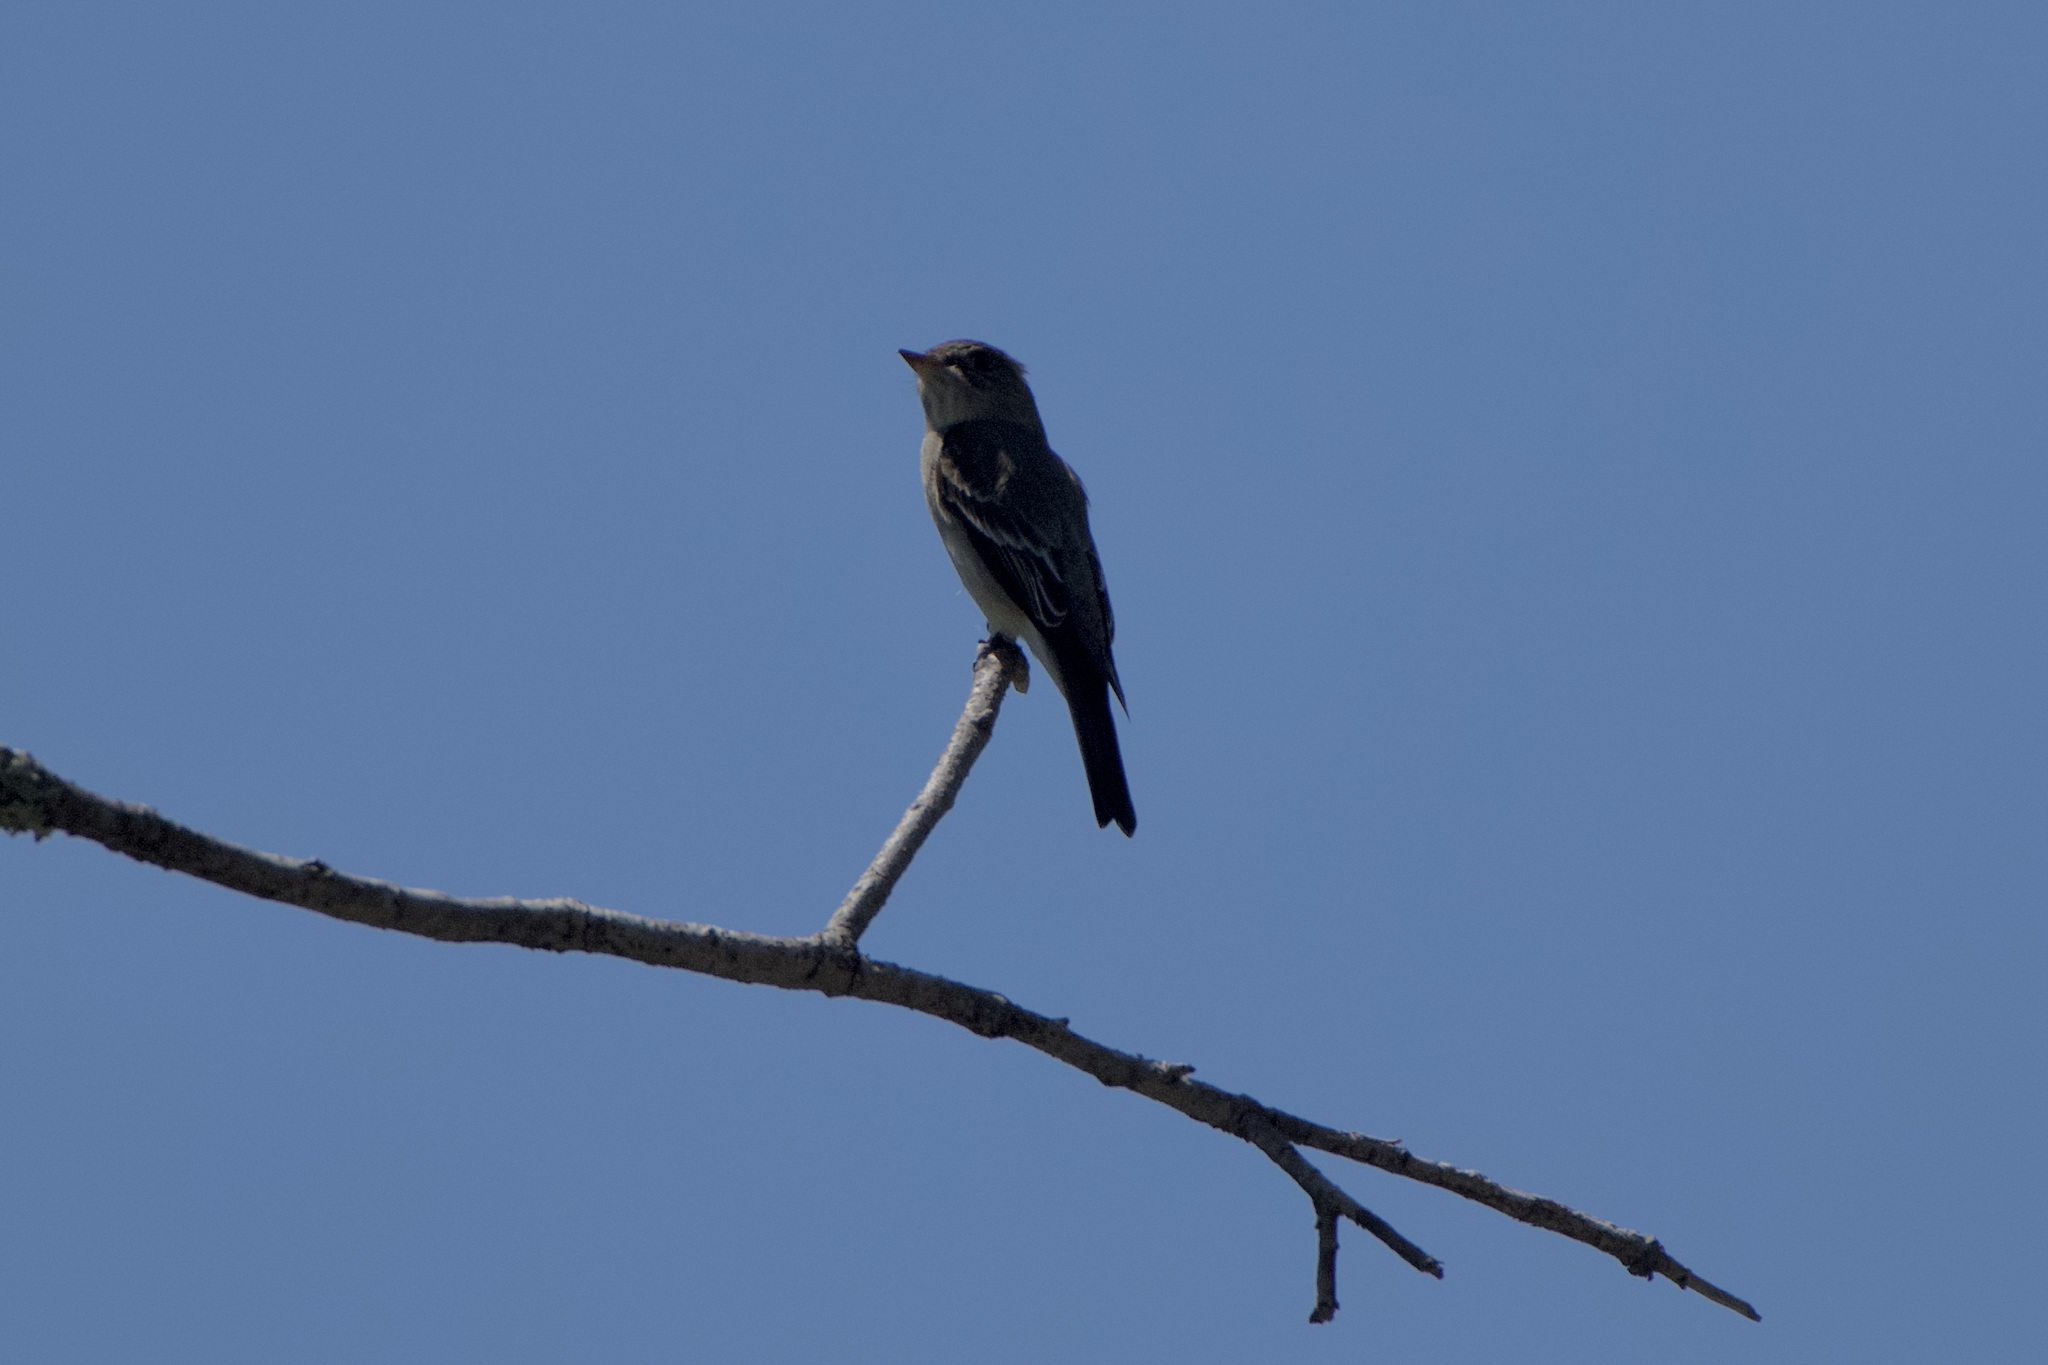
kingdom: Animalia
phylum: Chordata
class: Aves
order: Passeriformes
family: Tyrannidae
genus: Contopus
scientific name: Contopus sordidulus
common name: Western wood-pewee
